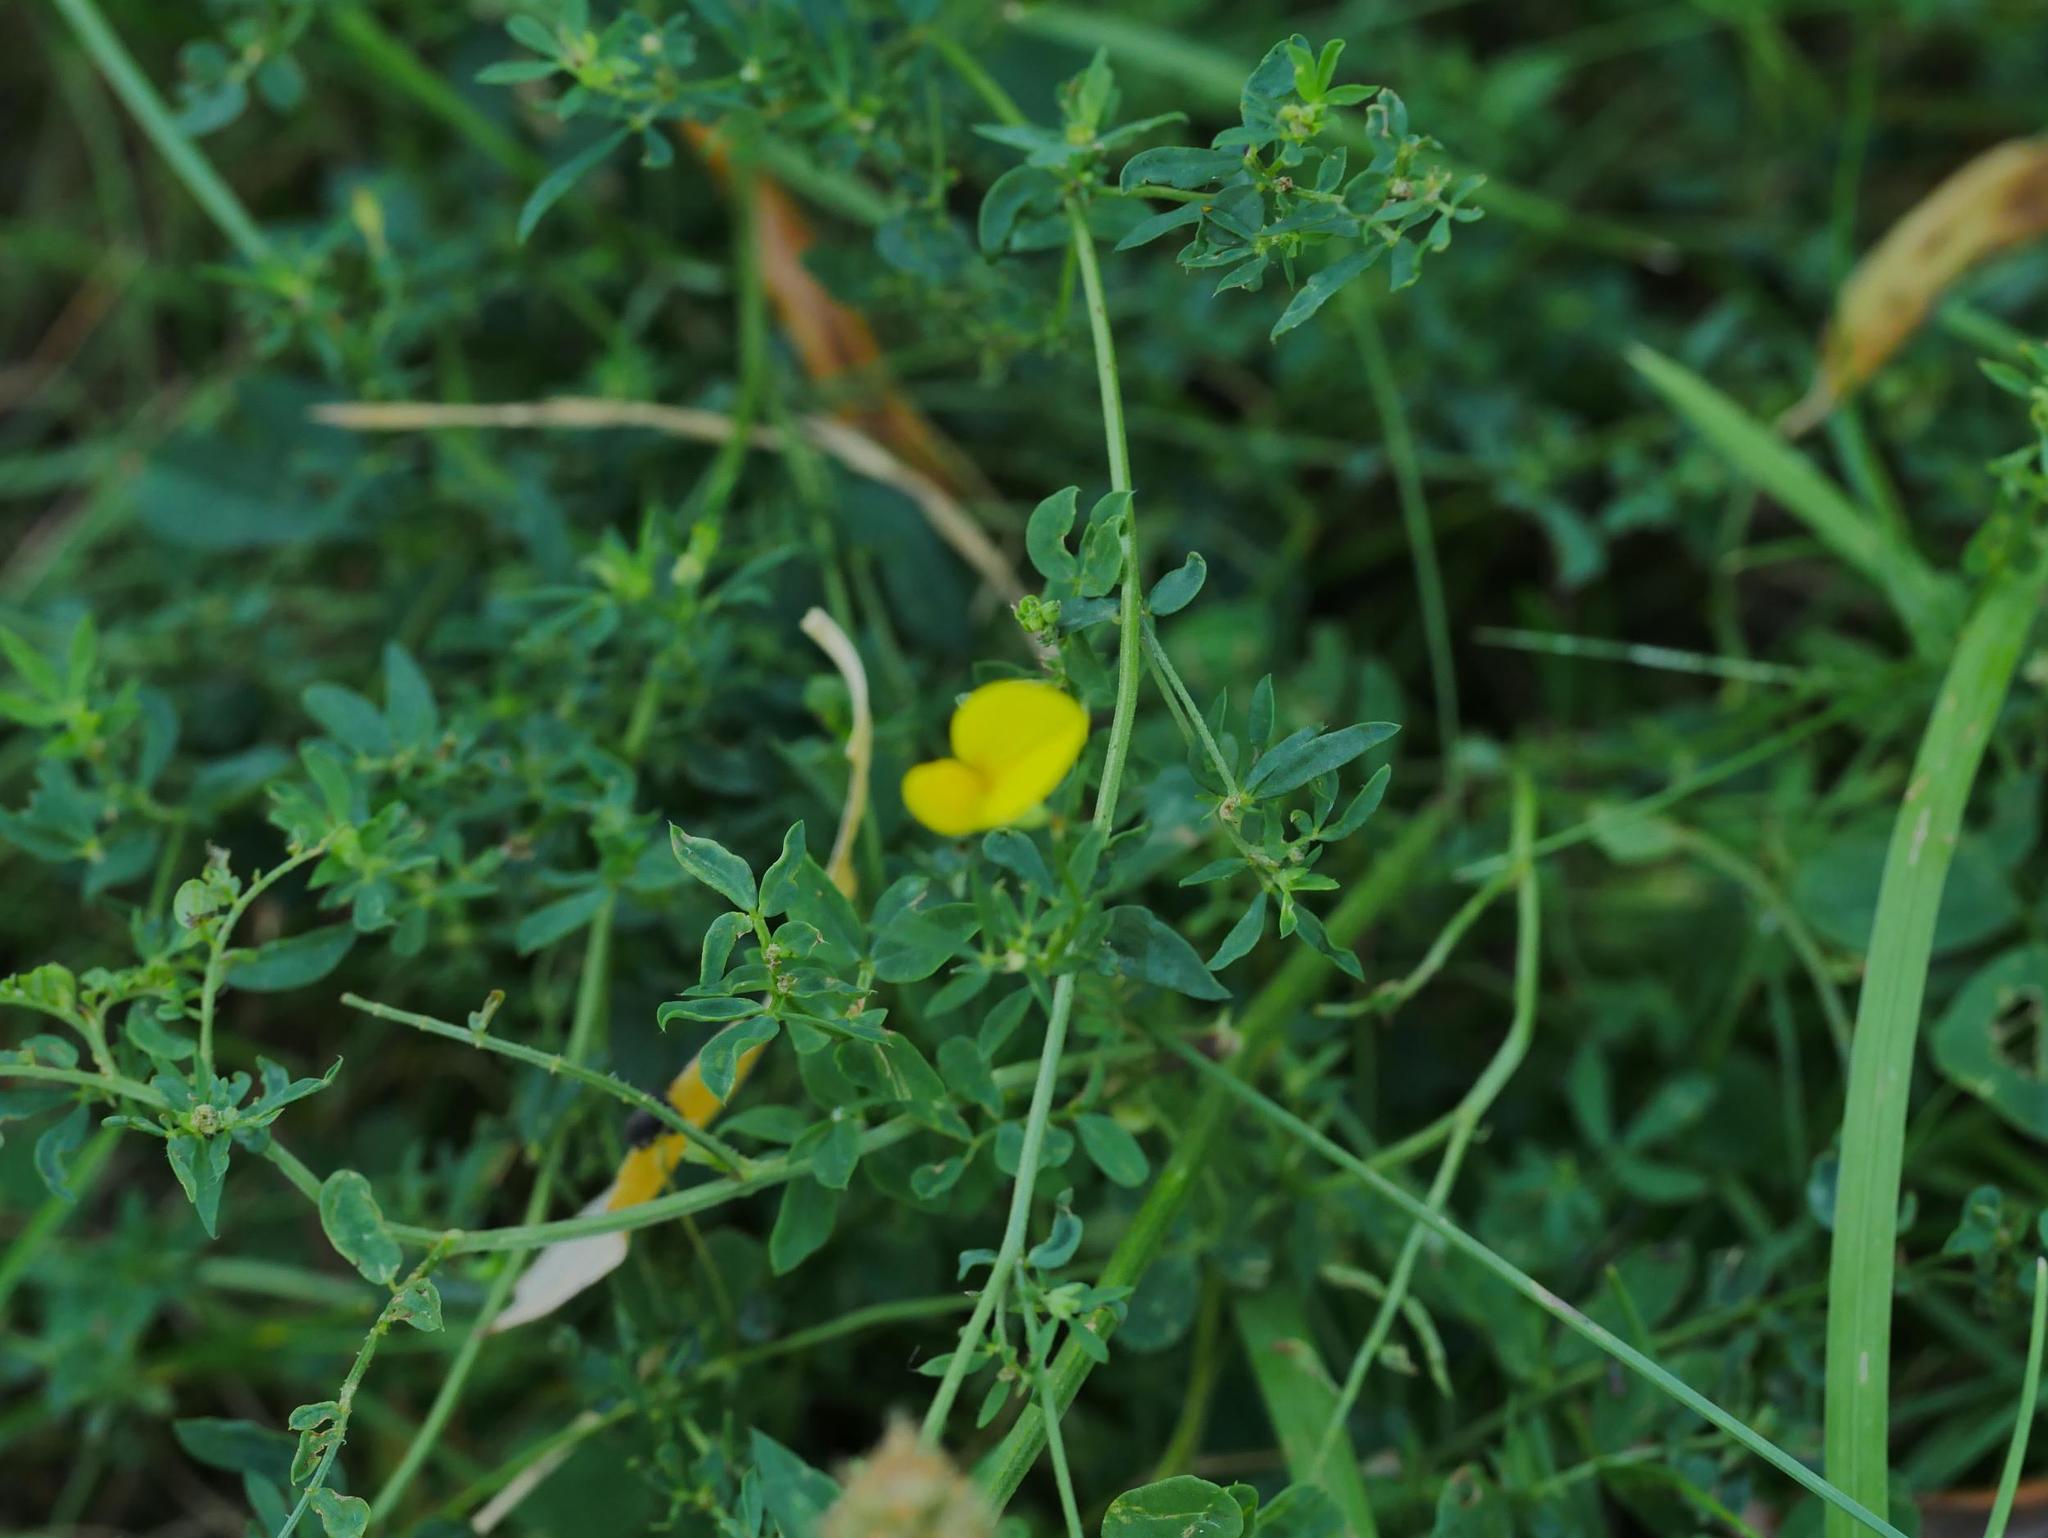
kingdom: Plantae
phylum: Tracheophyta
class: Magnoliopsida
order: Fabales
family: Fabaceae
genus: Lotus
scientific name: Lotus corniculatus
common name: Common bird's-foot-trefoil
